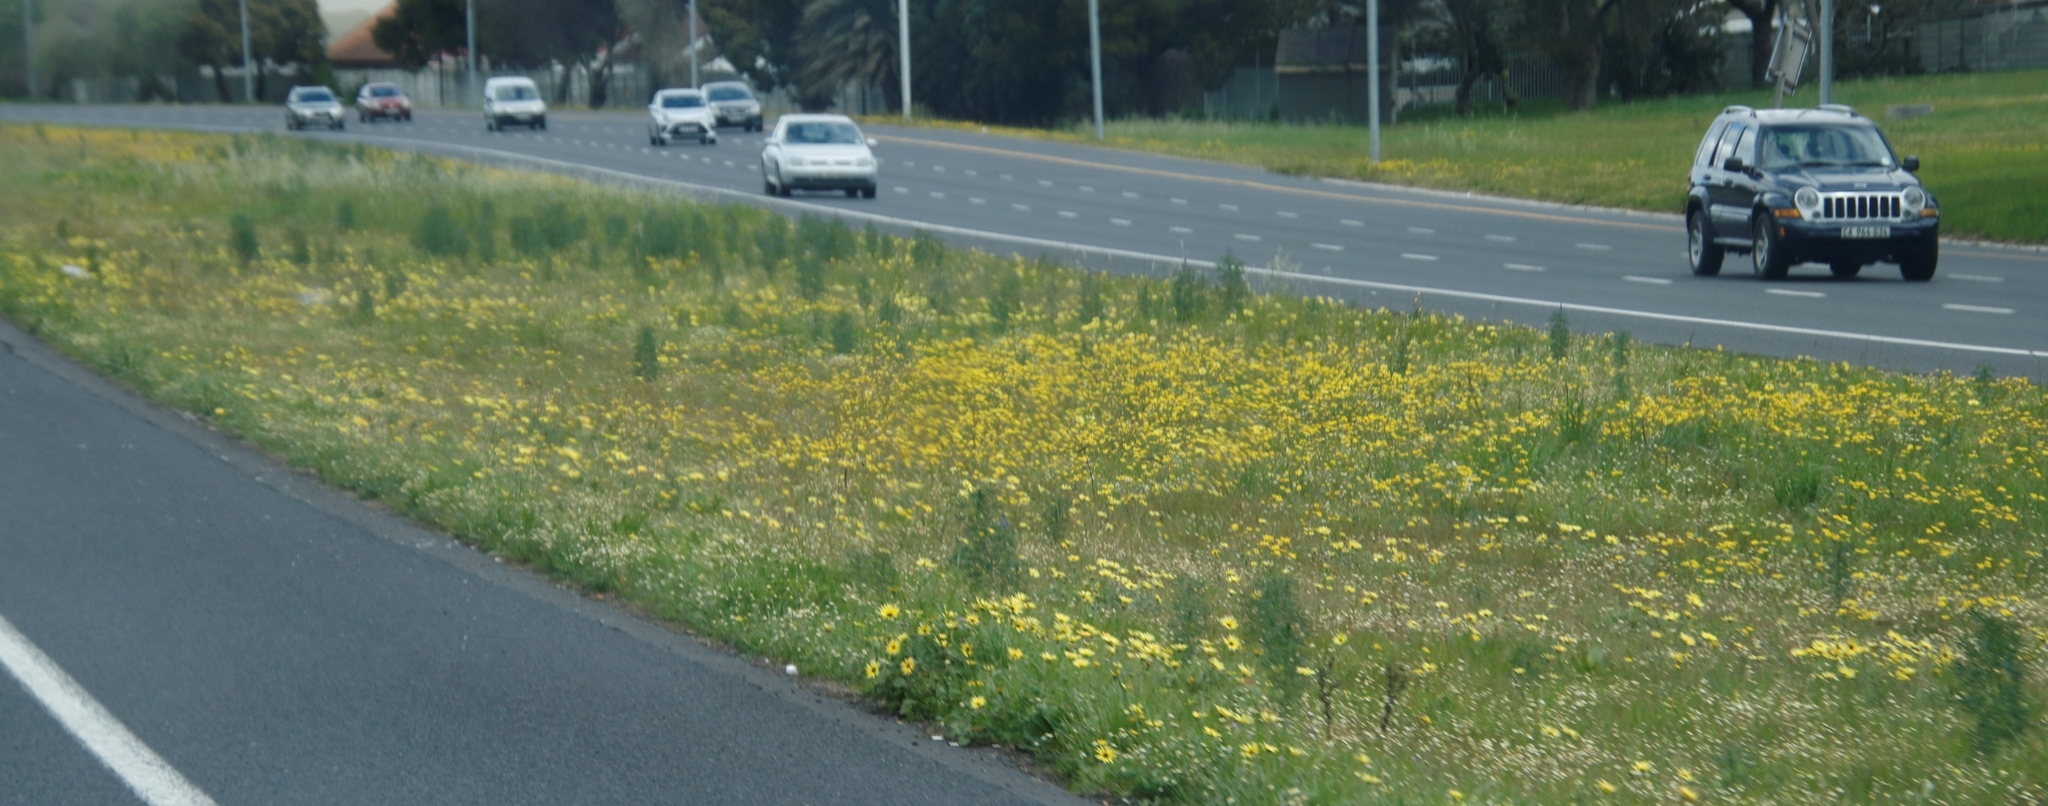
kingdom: Plantae
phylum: Tracheophyta
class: Magnoliopsida
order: Fabales
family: Fabaceae
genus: Lupinus
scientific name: Lupinus angustifolius
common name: Narrow-leaved lupin
